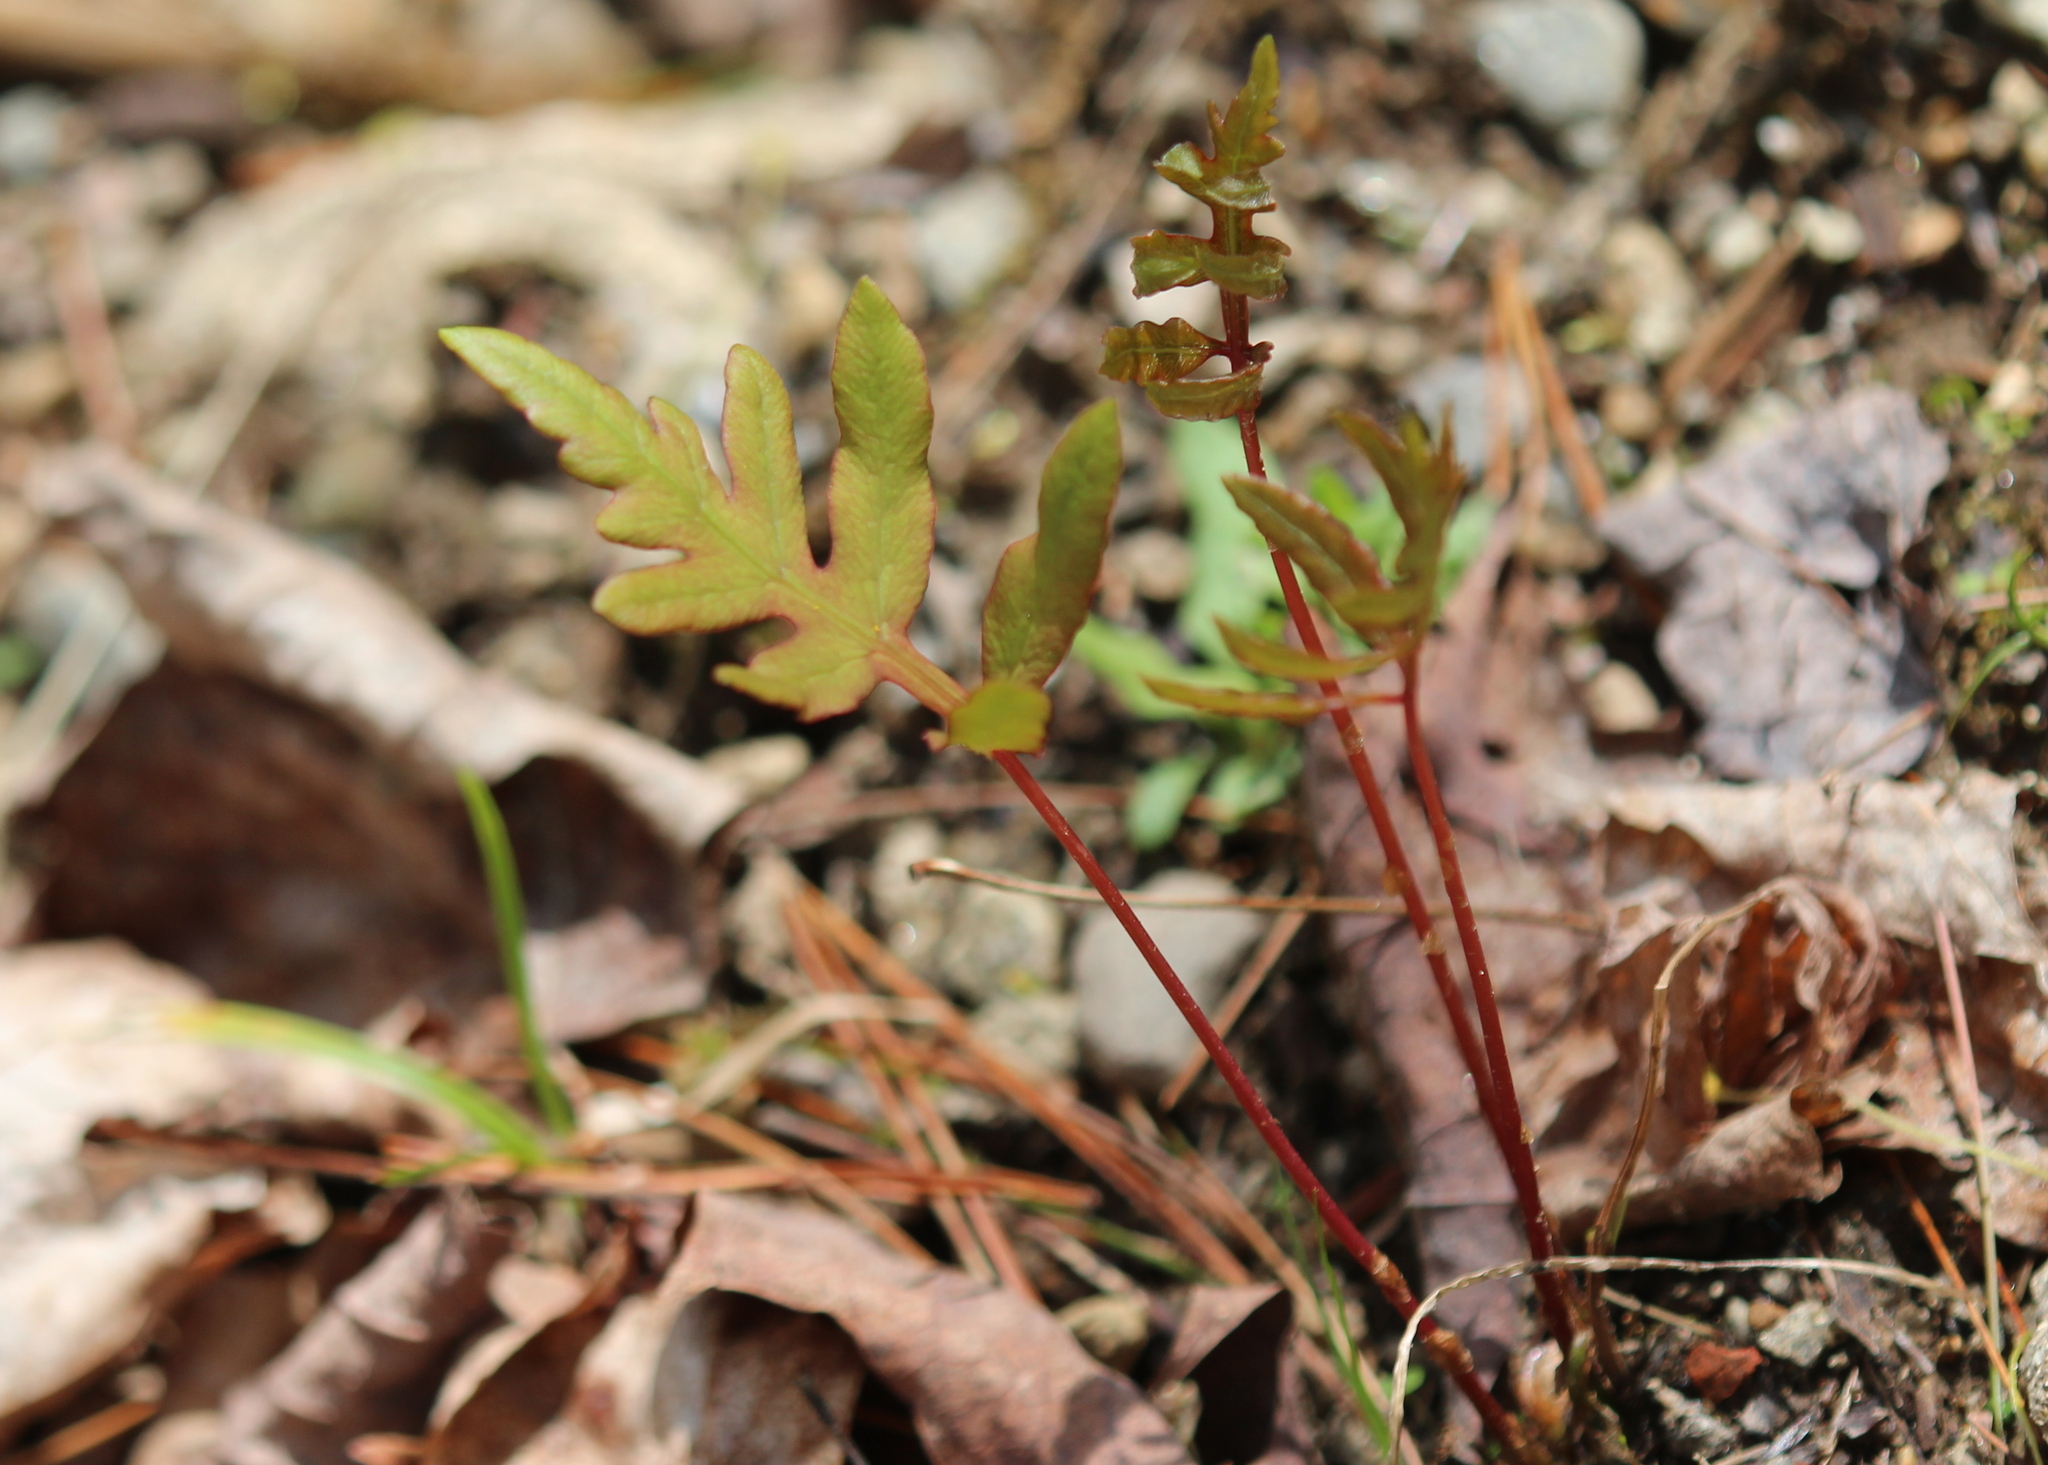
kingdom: Plantae
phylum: Tracheophyta
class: Polypodiopsida
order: Polypodiales
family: Onocleaceae
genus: Onoclea
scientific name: Onoclea sensibilis
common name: Sensitive fern
